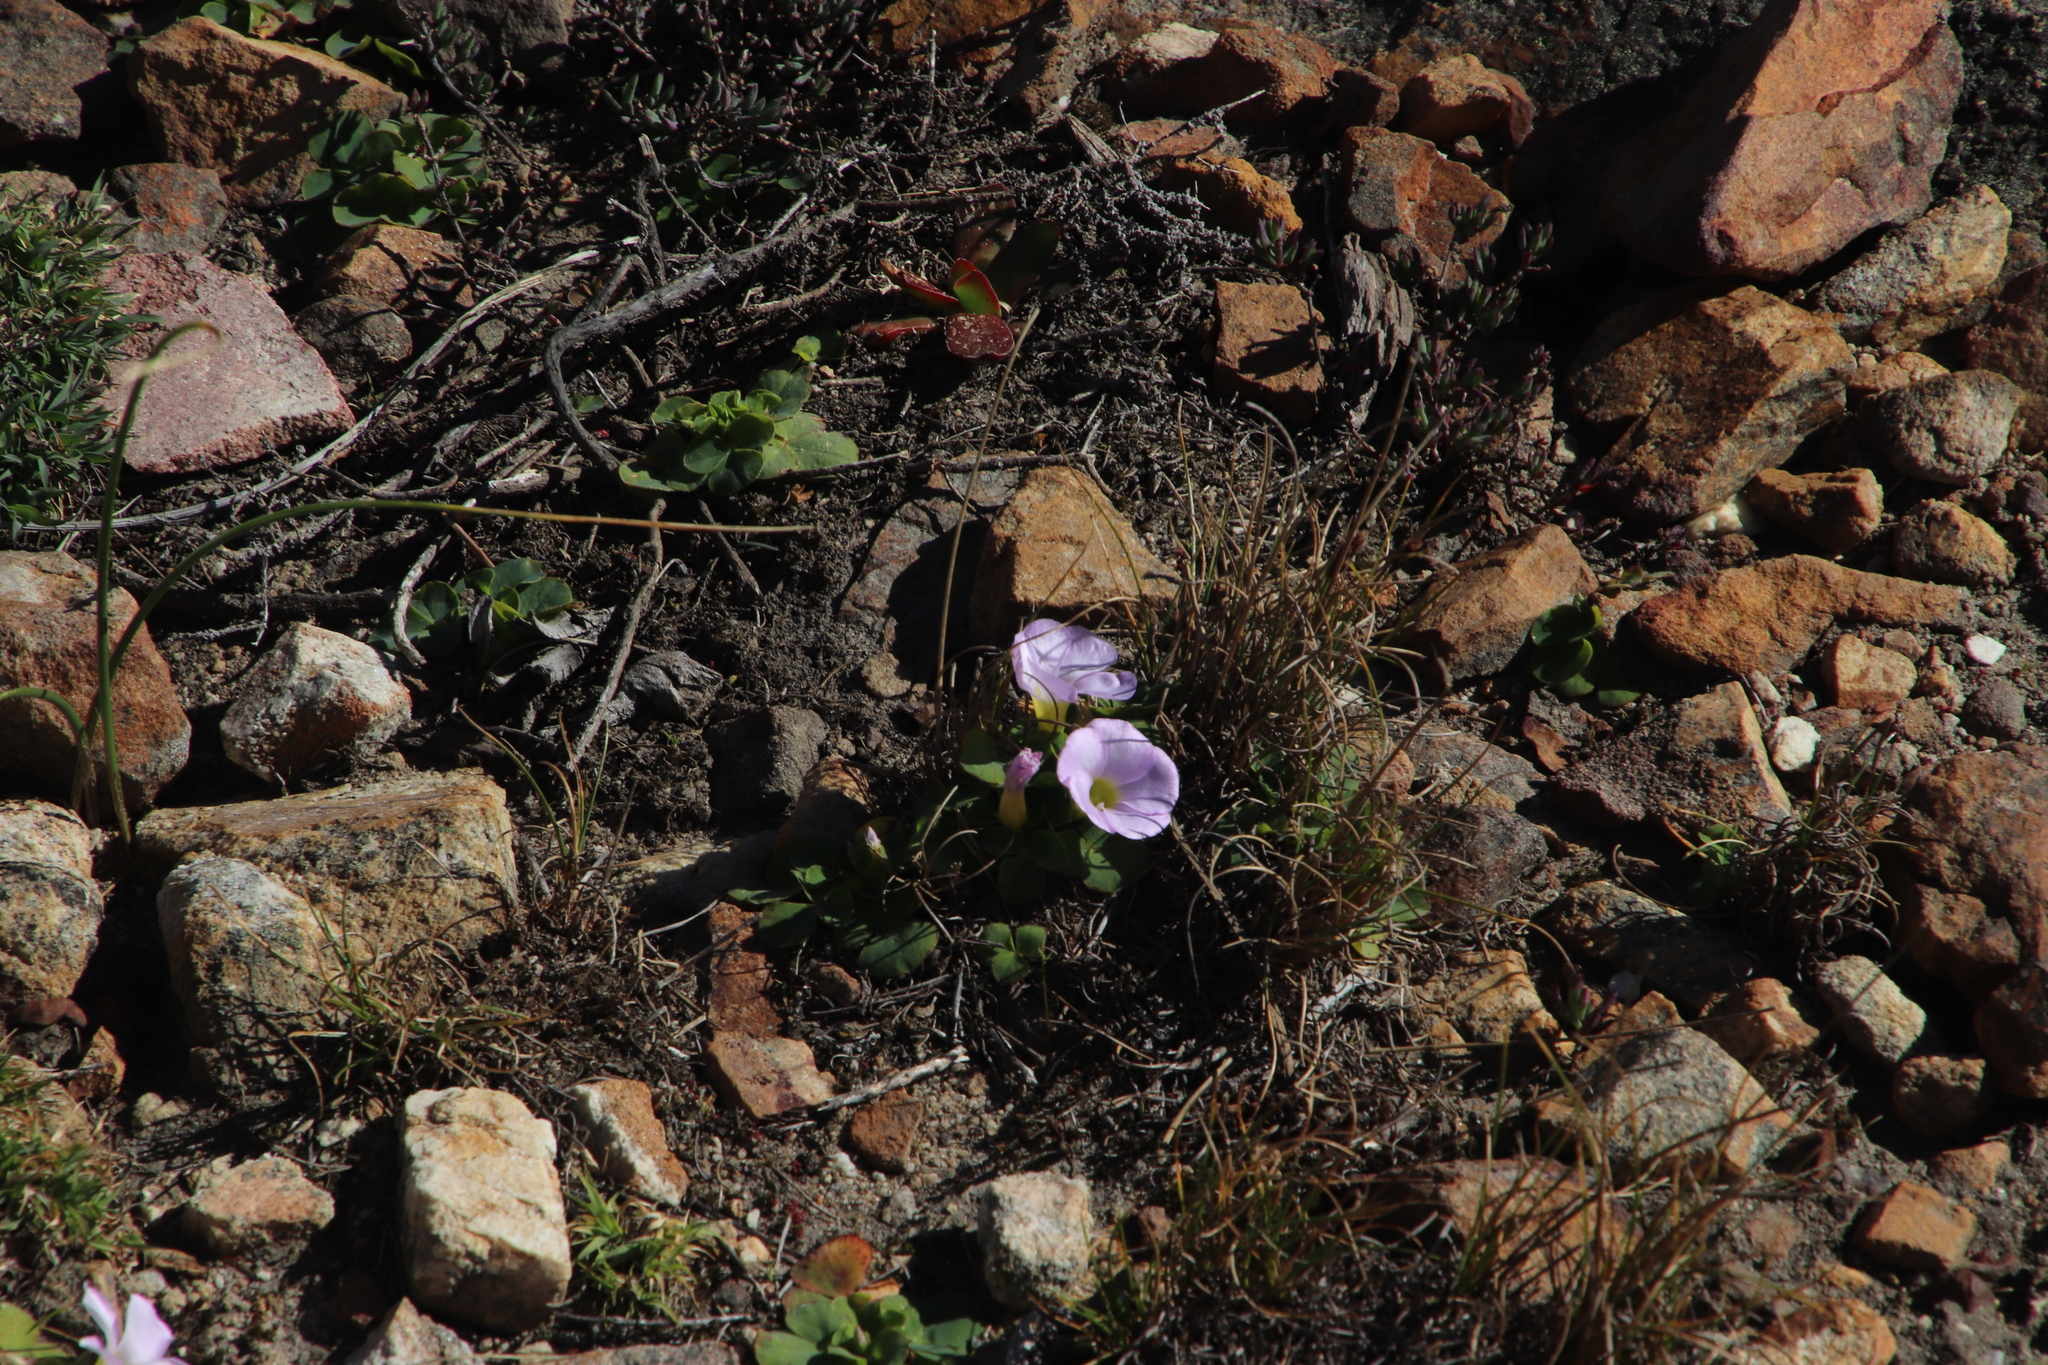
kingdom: Plantae
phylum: Tracheophyta
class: Magnoliopsida
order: Oxalidales
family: Oxalidaceae
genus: Oxalis
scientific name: Oxalis purpurea
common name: Purple woodsorrel
